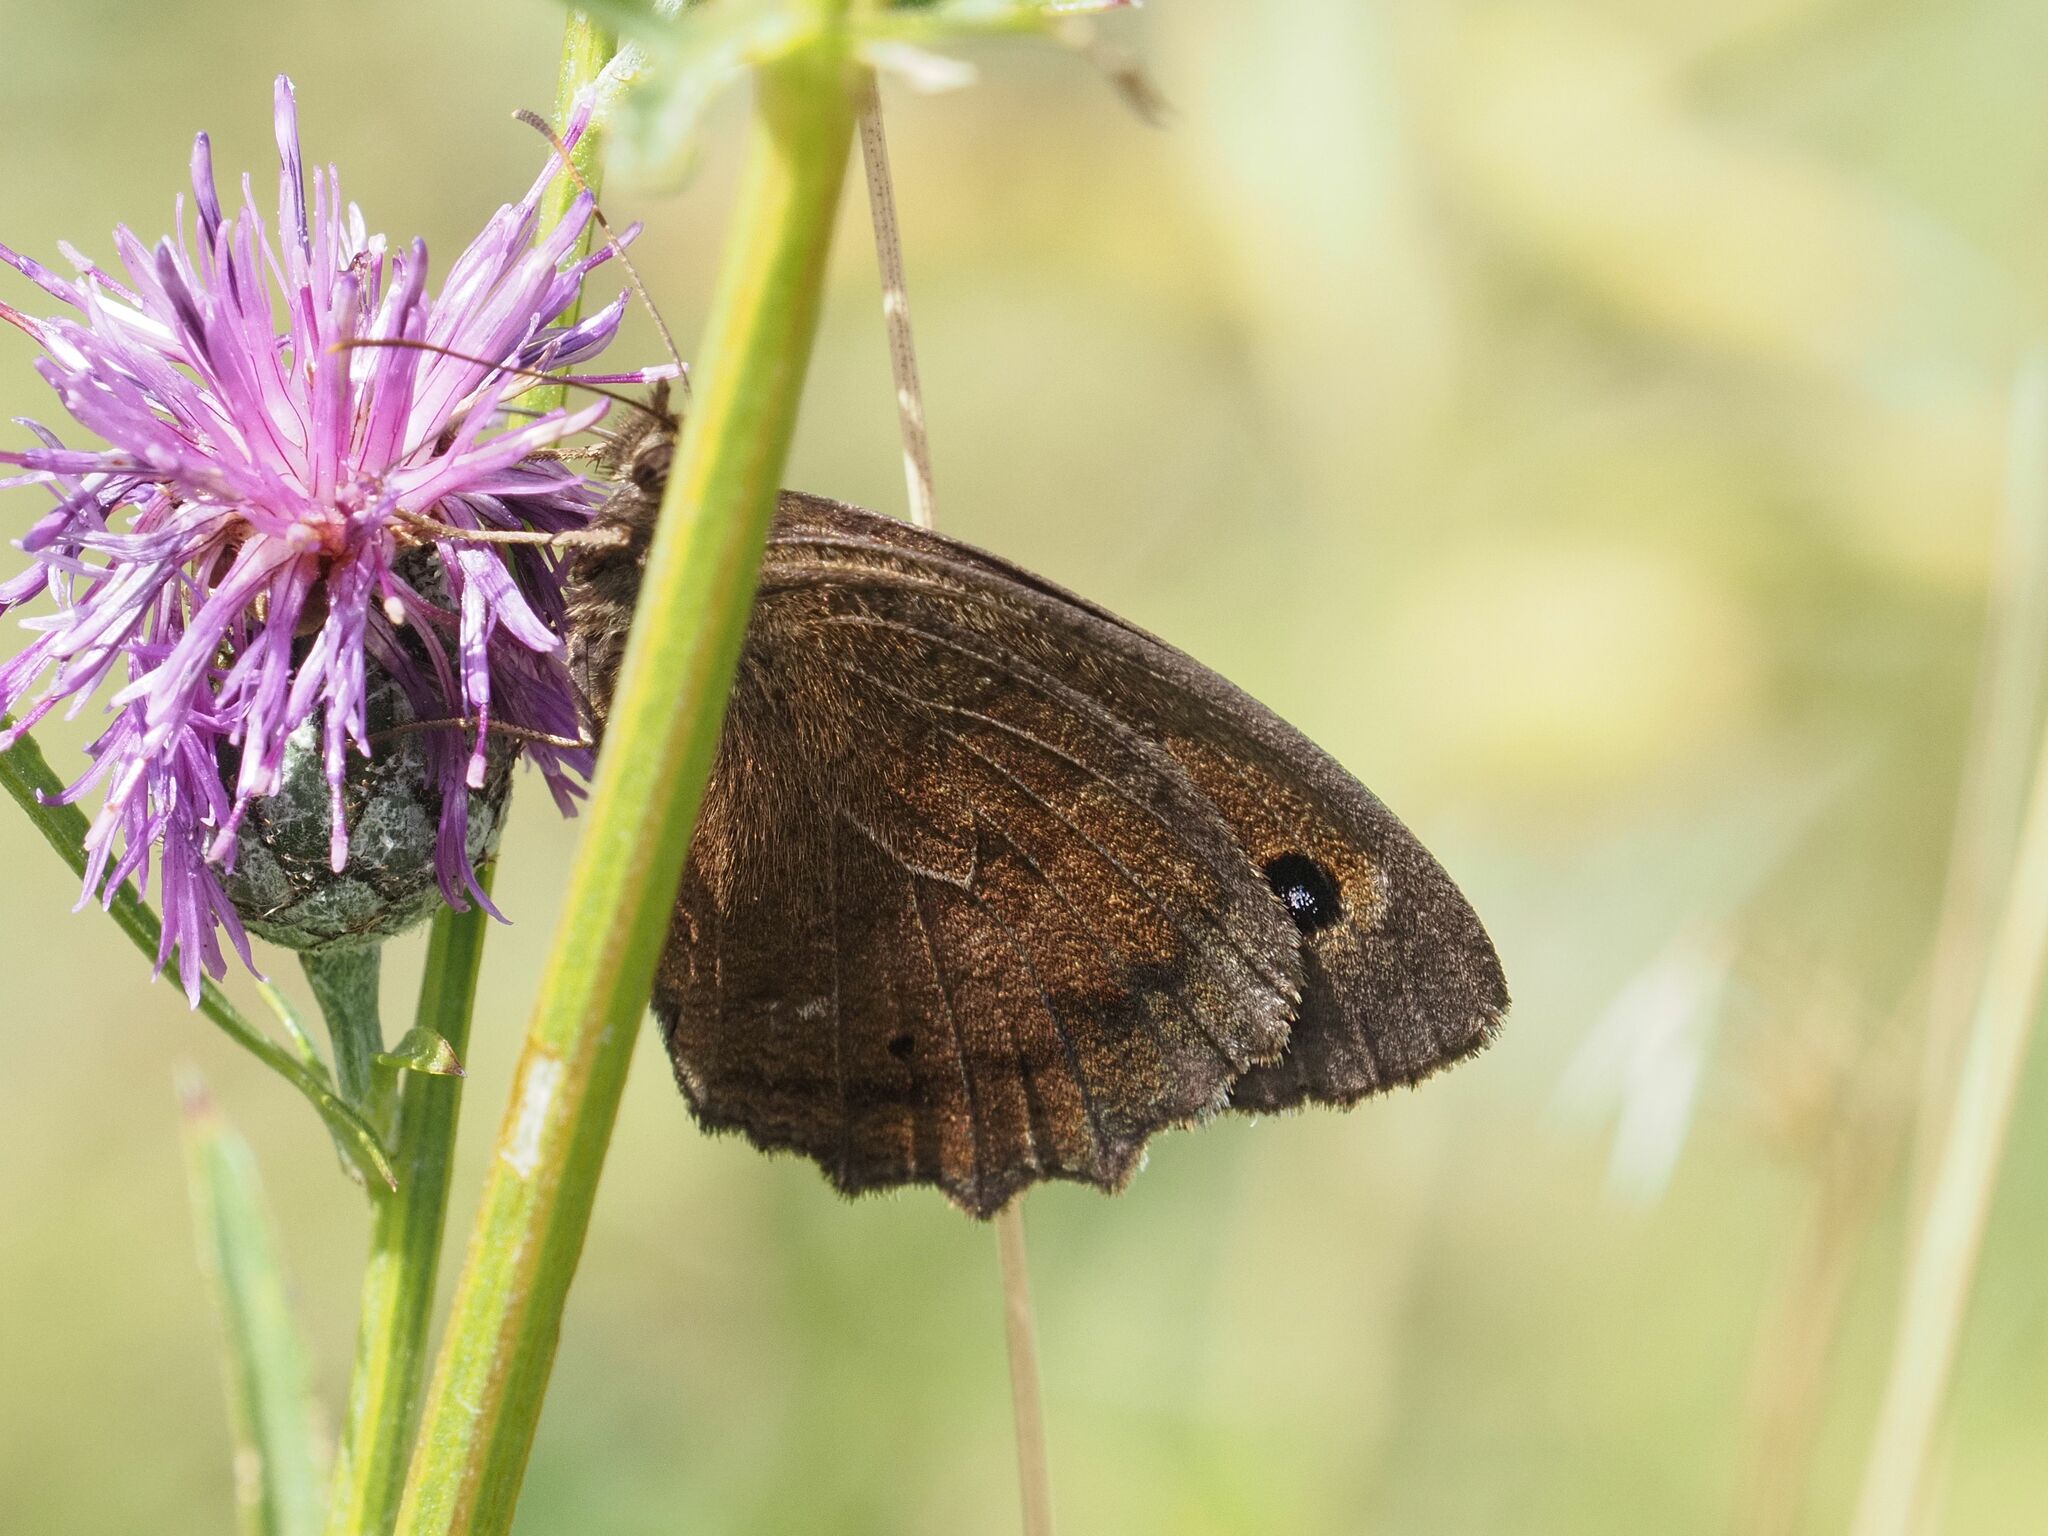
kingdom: Animalia
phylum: Arthropoda
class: Insecta
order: Lepidoptera
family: Nymphalidae
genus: Minois
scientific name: Minois dryas
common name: Dryad
